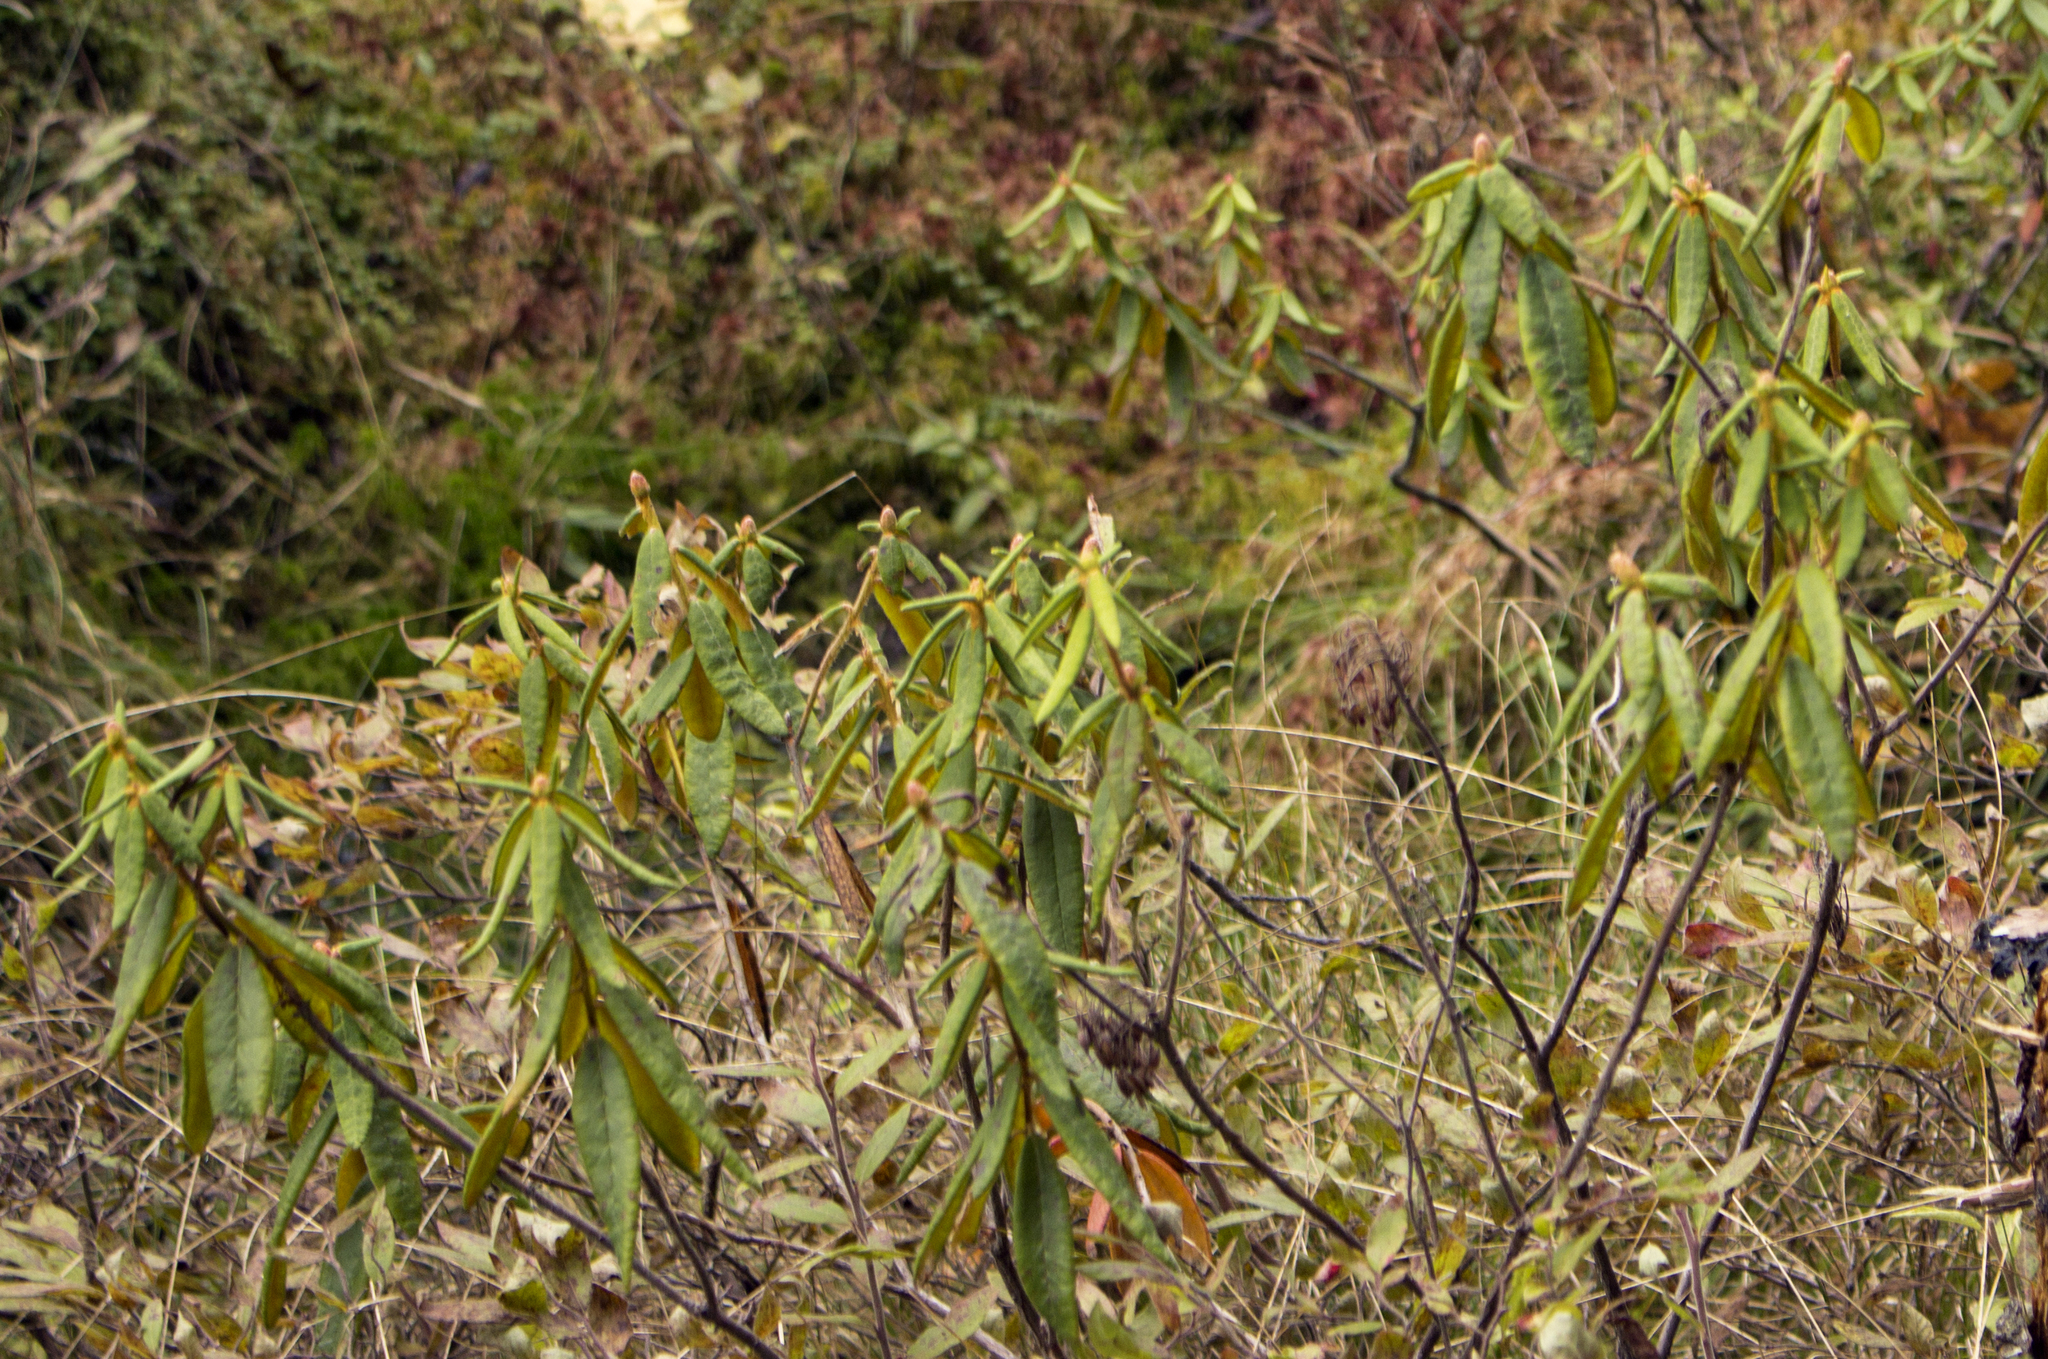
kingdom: Plantae
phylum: Tracheophyta
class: Magnoliopsida
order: Ericales
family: Ericaceae
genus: Rhododendron
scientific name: Rhododendron groenlandicum
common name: Bog labrador tea
